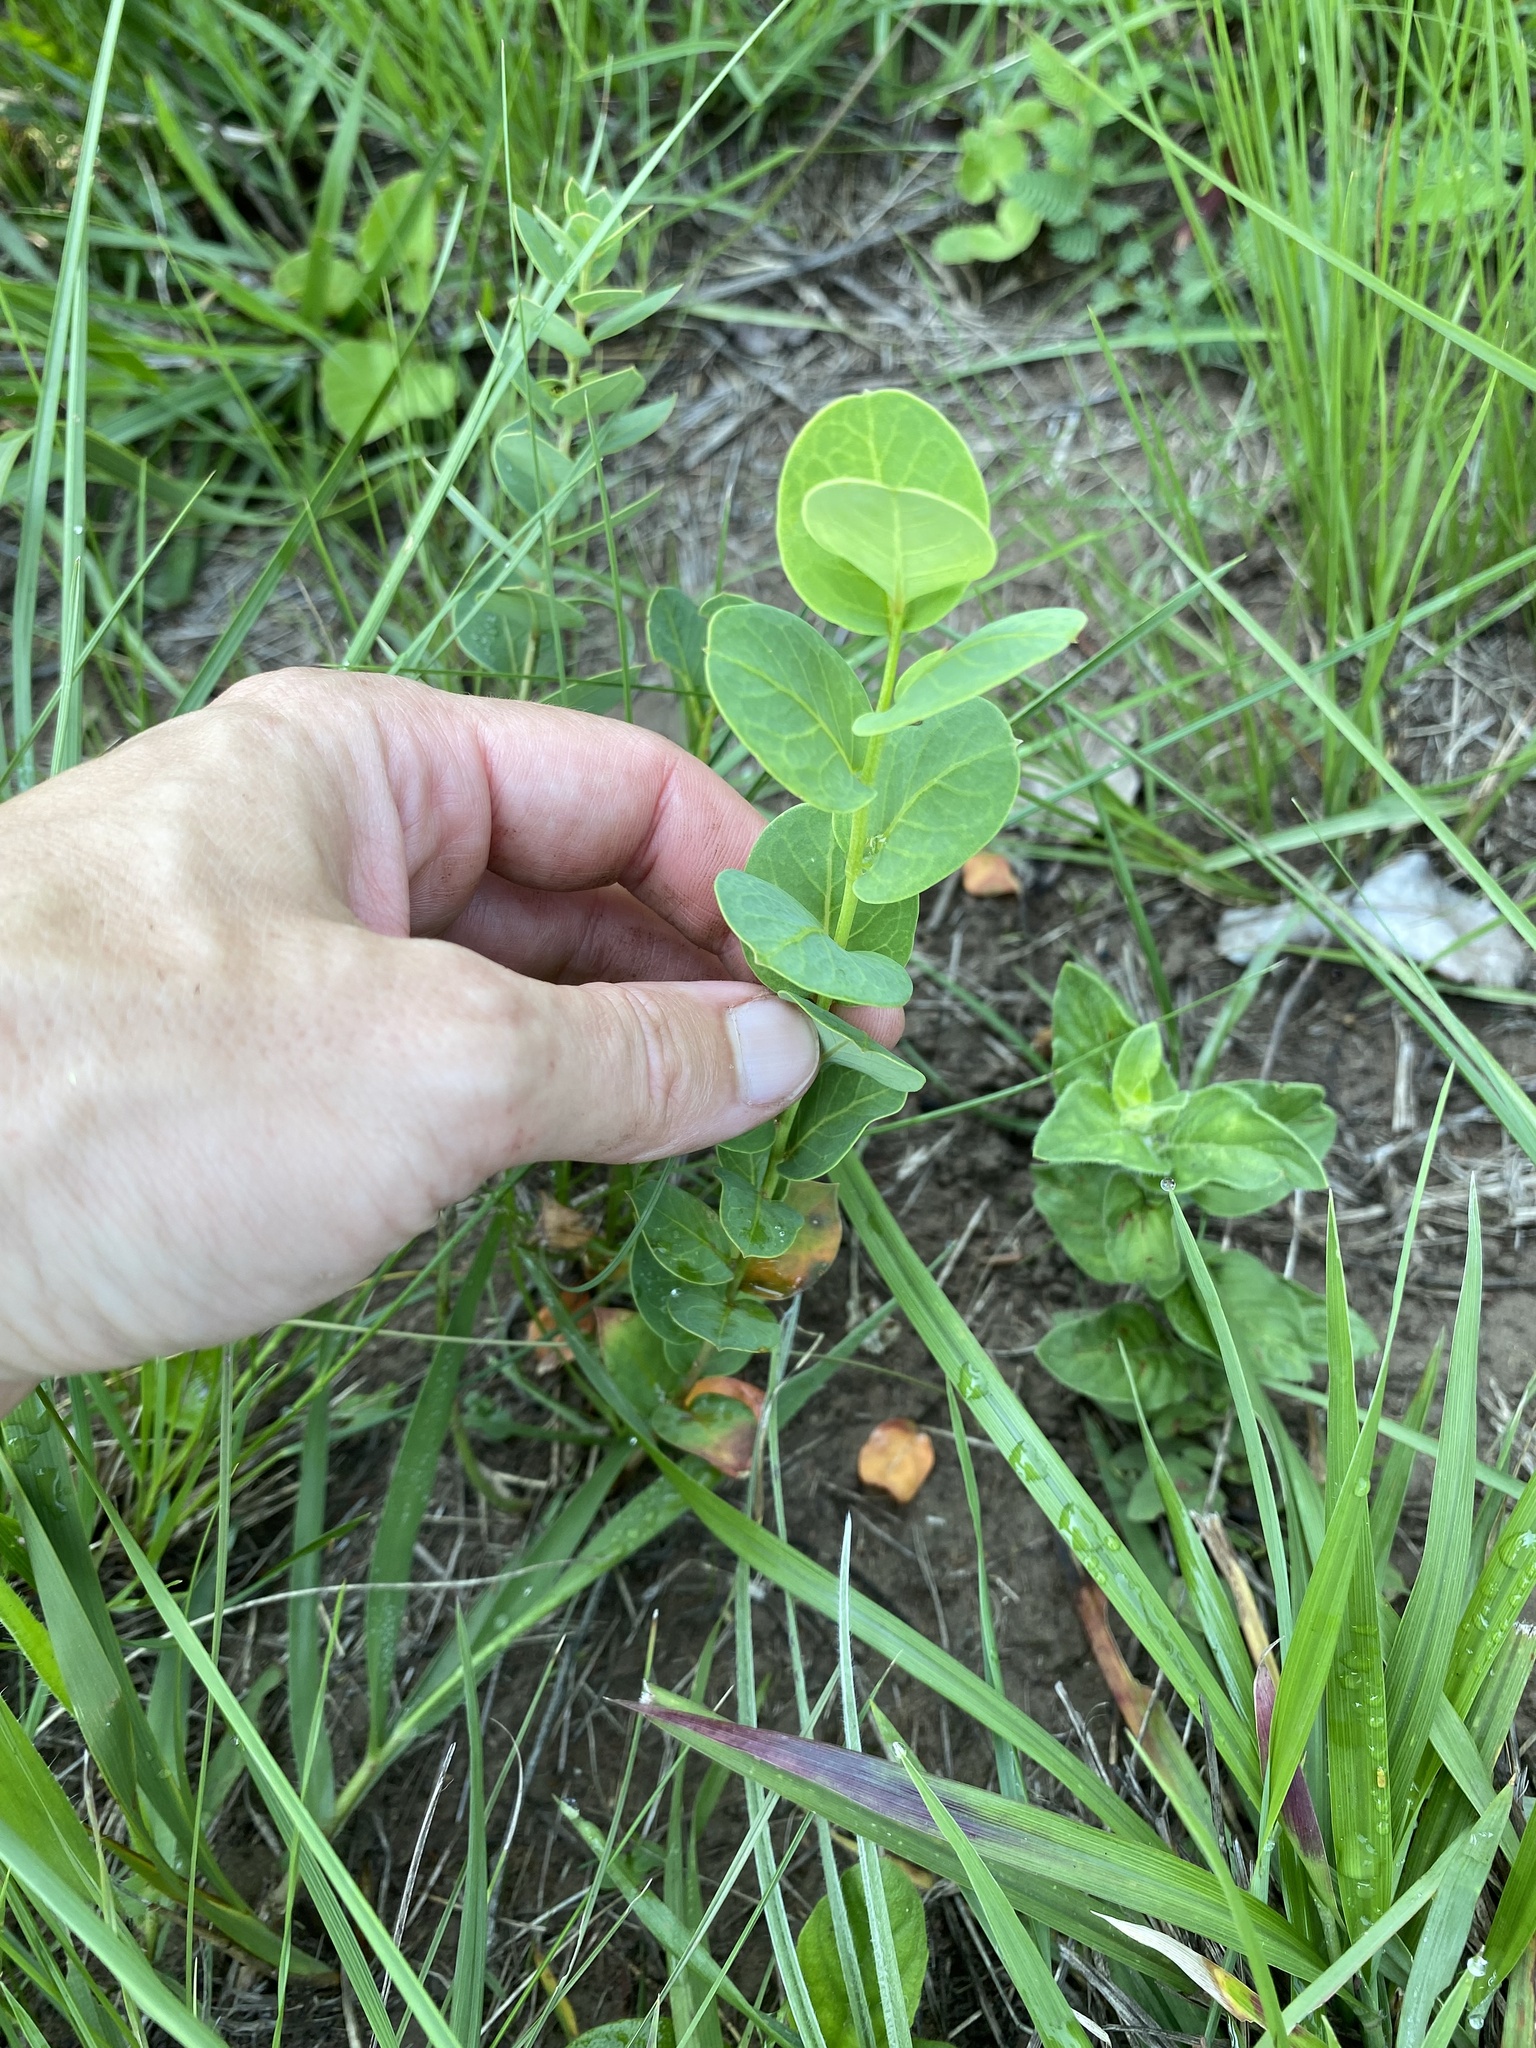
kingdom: Plantae
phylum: Tracheophyta
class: Magnoliopsida
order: Malpighiales
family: Peraceae
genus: Clutia
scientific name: Clutia cordata
